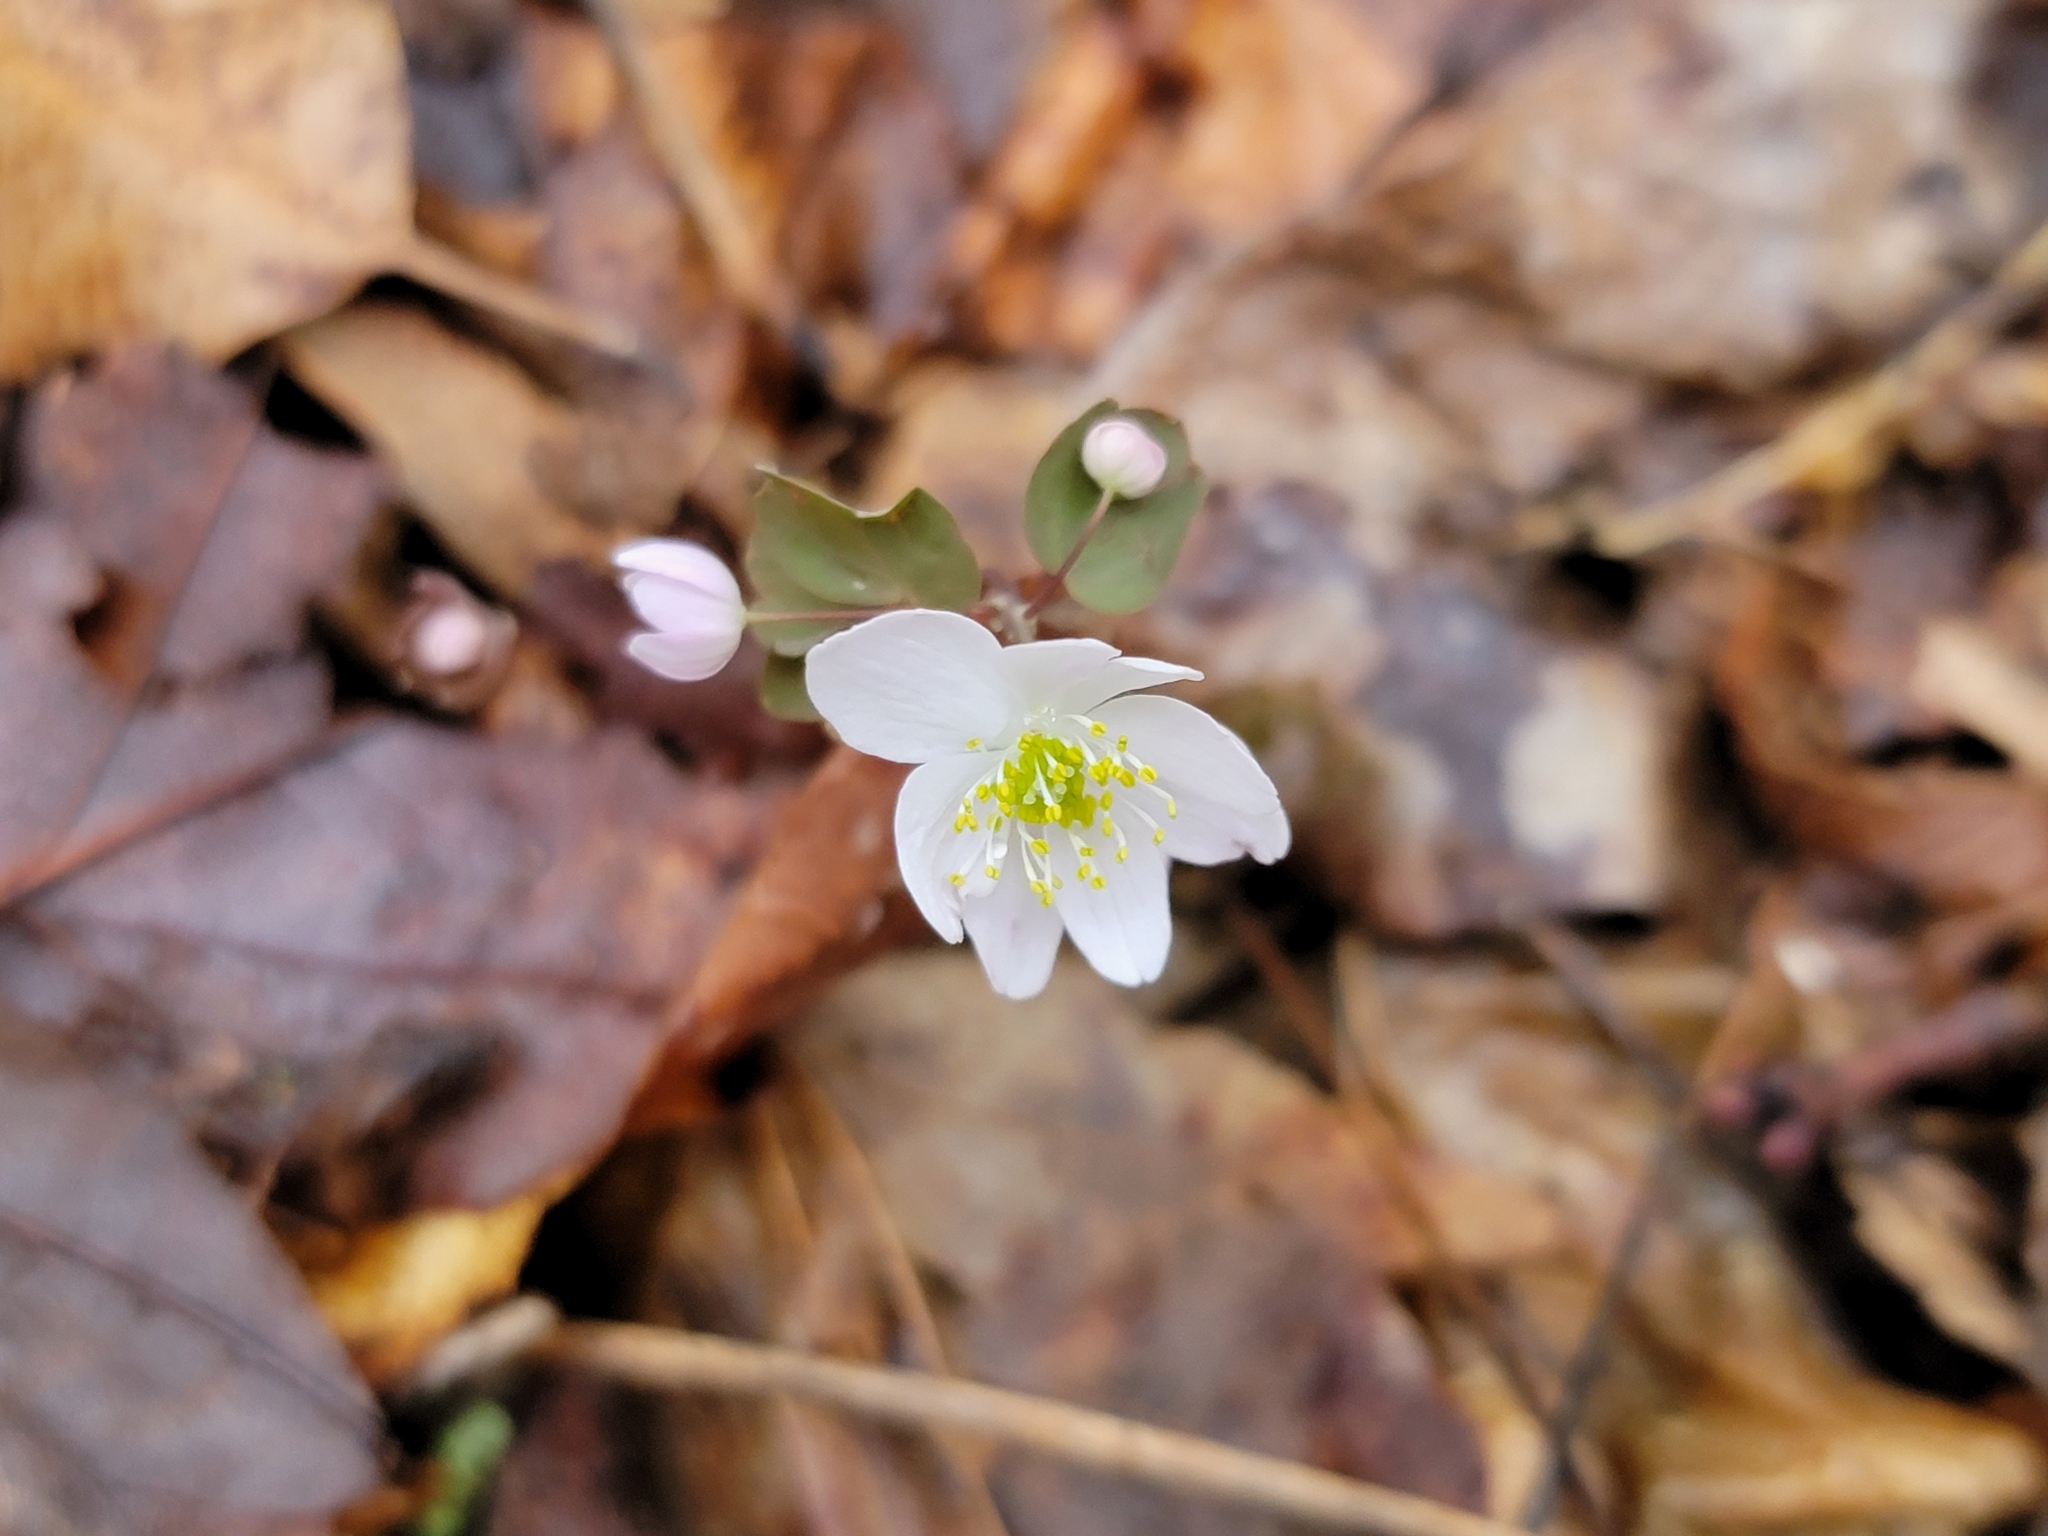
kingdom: Plantae
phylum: Tracheophyta
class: Magnoliopsida
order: Ranunculales
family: Ranunculaceae
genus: Thalictrum
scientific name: Thalictrum thalictroides
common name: Rue-anemone
